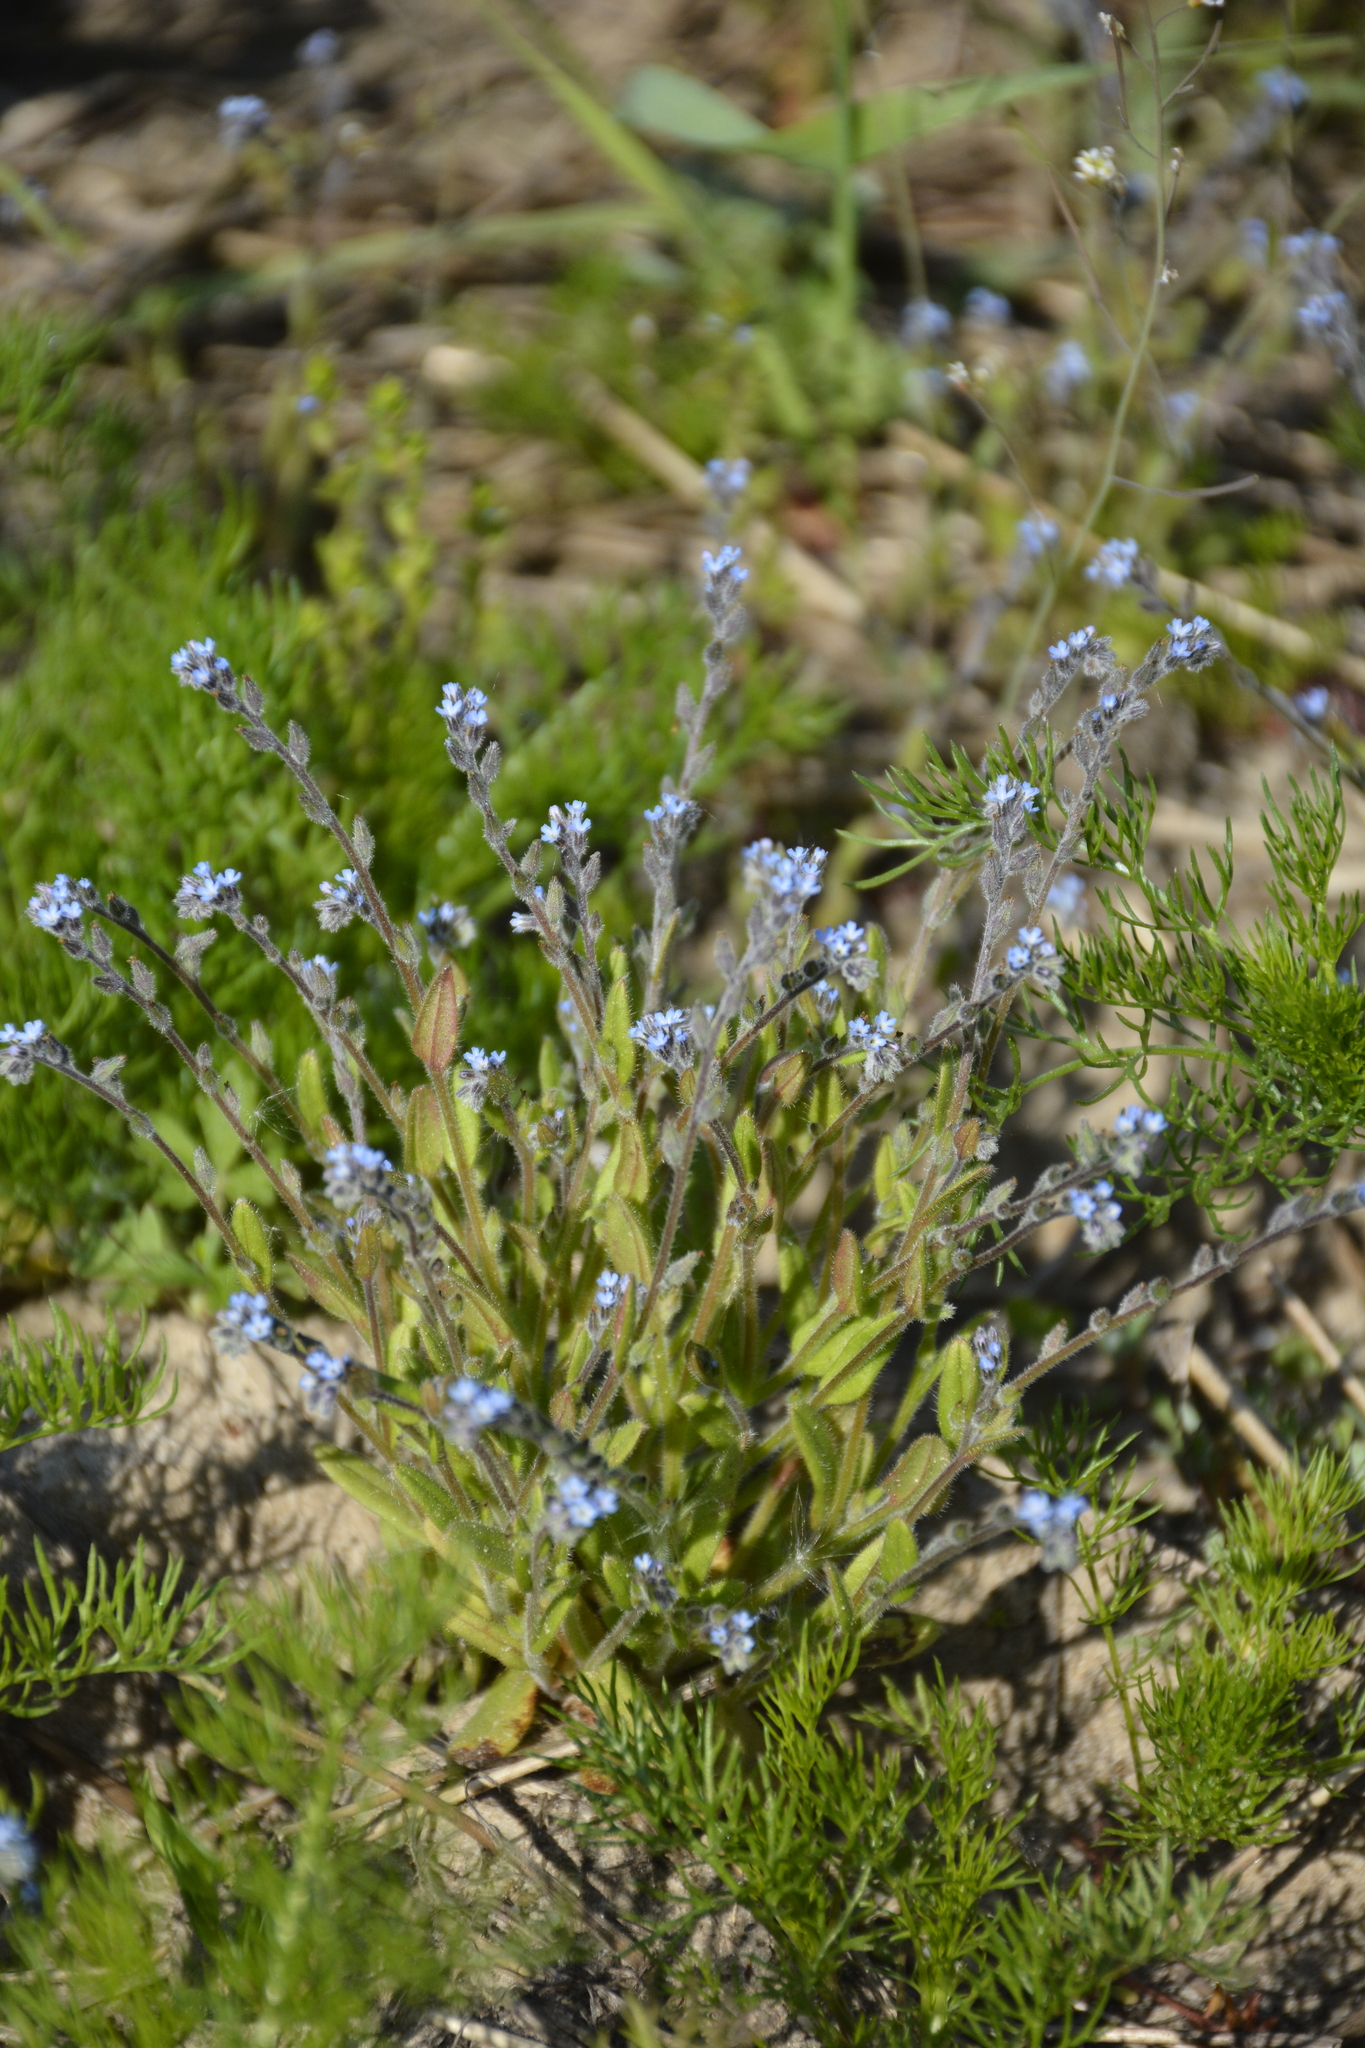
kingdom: Plantae
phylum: Tracheophyta
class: Magnoliopsida
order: Boraginales
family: Boraginaceae
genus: Myosotis
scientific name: Myosotis stricta
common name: Strict forget-me-not
